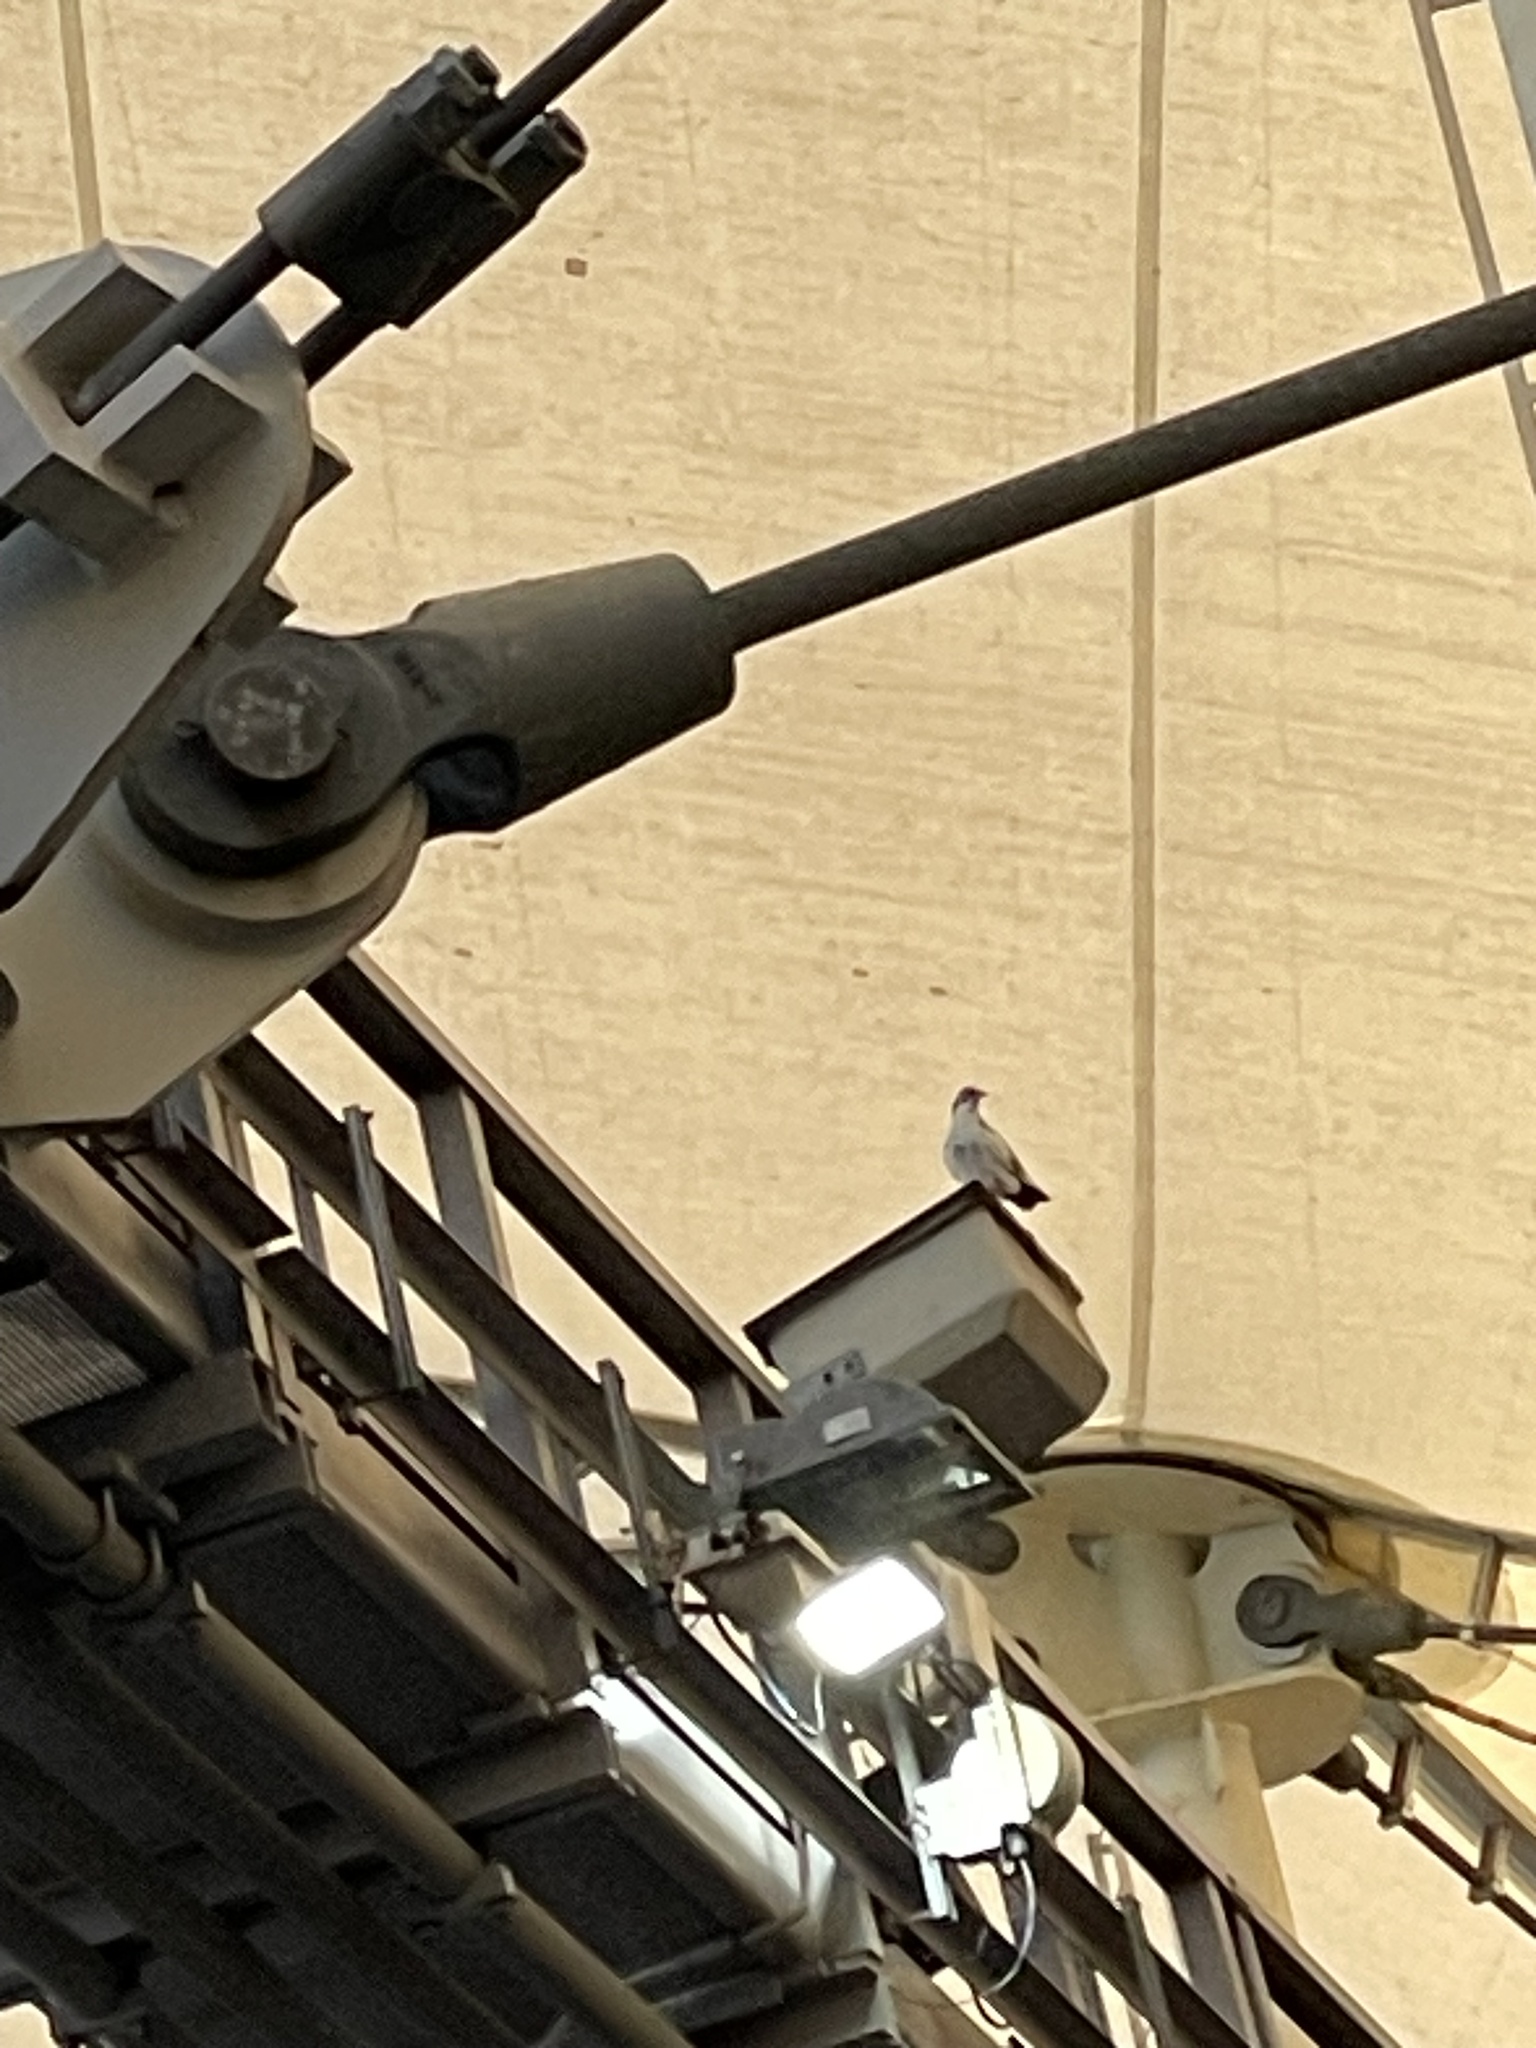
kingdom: Animalia
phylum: Chordata
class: Aves
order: Columbiformes
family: Columbidae
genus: Columba
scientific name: Columba livia
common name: Rock pigeon
